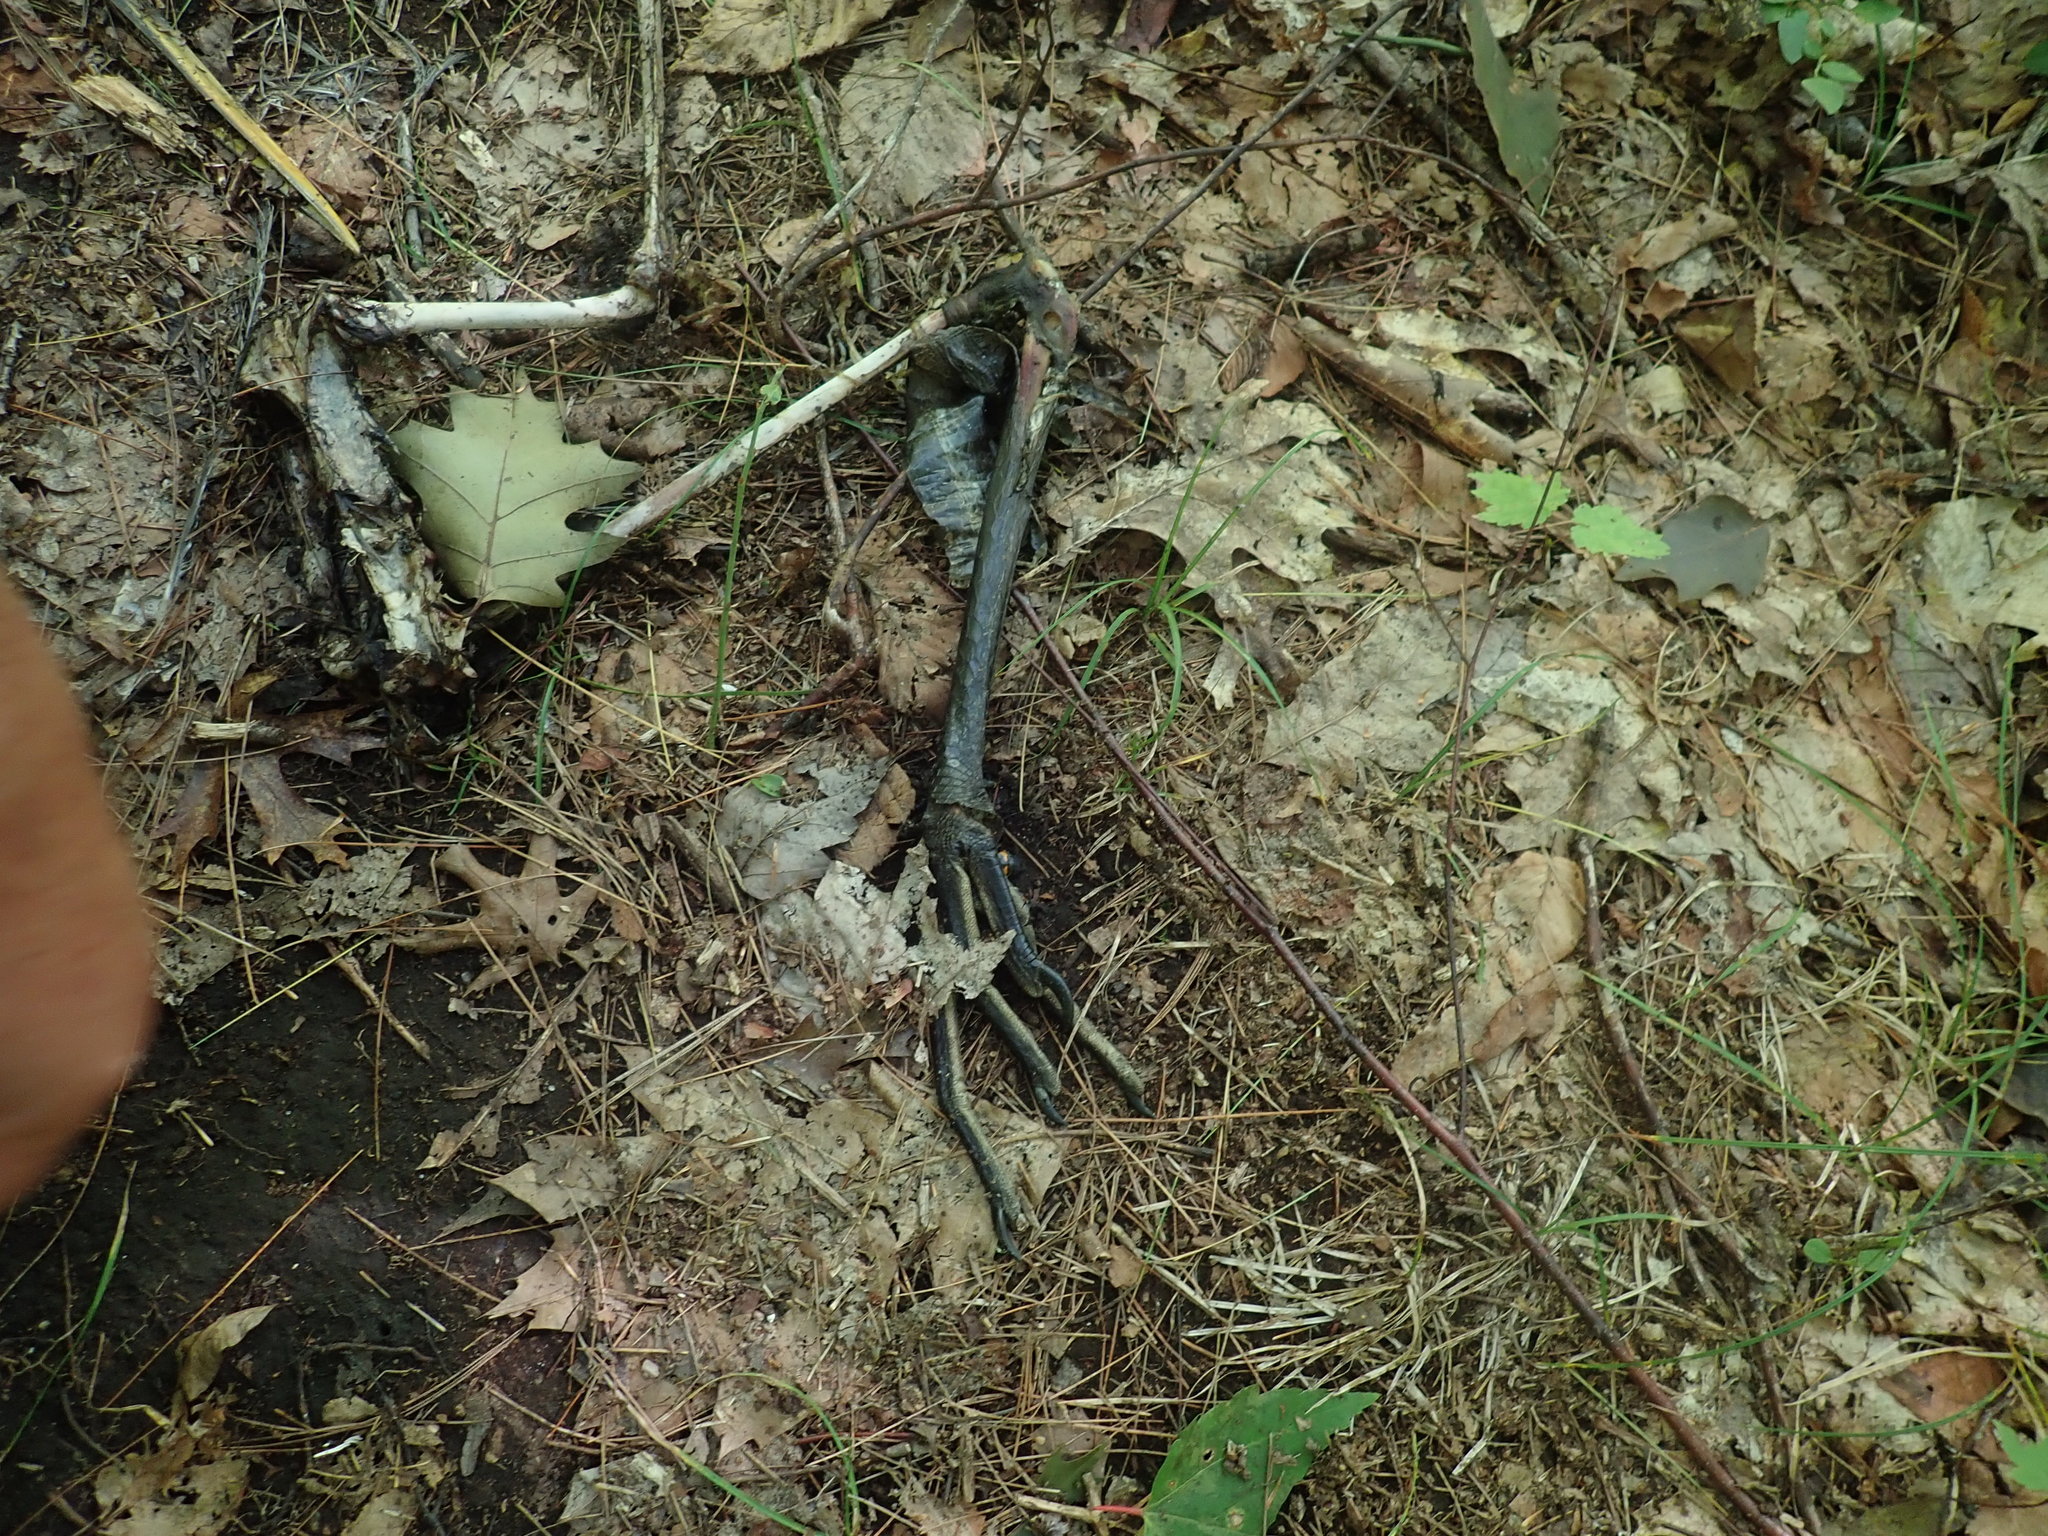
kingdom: Animalia
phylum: Chordata
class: Aves
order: Pelecaniformes
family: Ardeidae
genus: Ardea
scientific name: Ardea herodias
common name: Great blue heron
